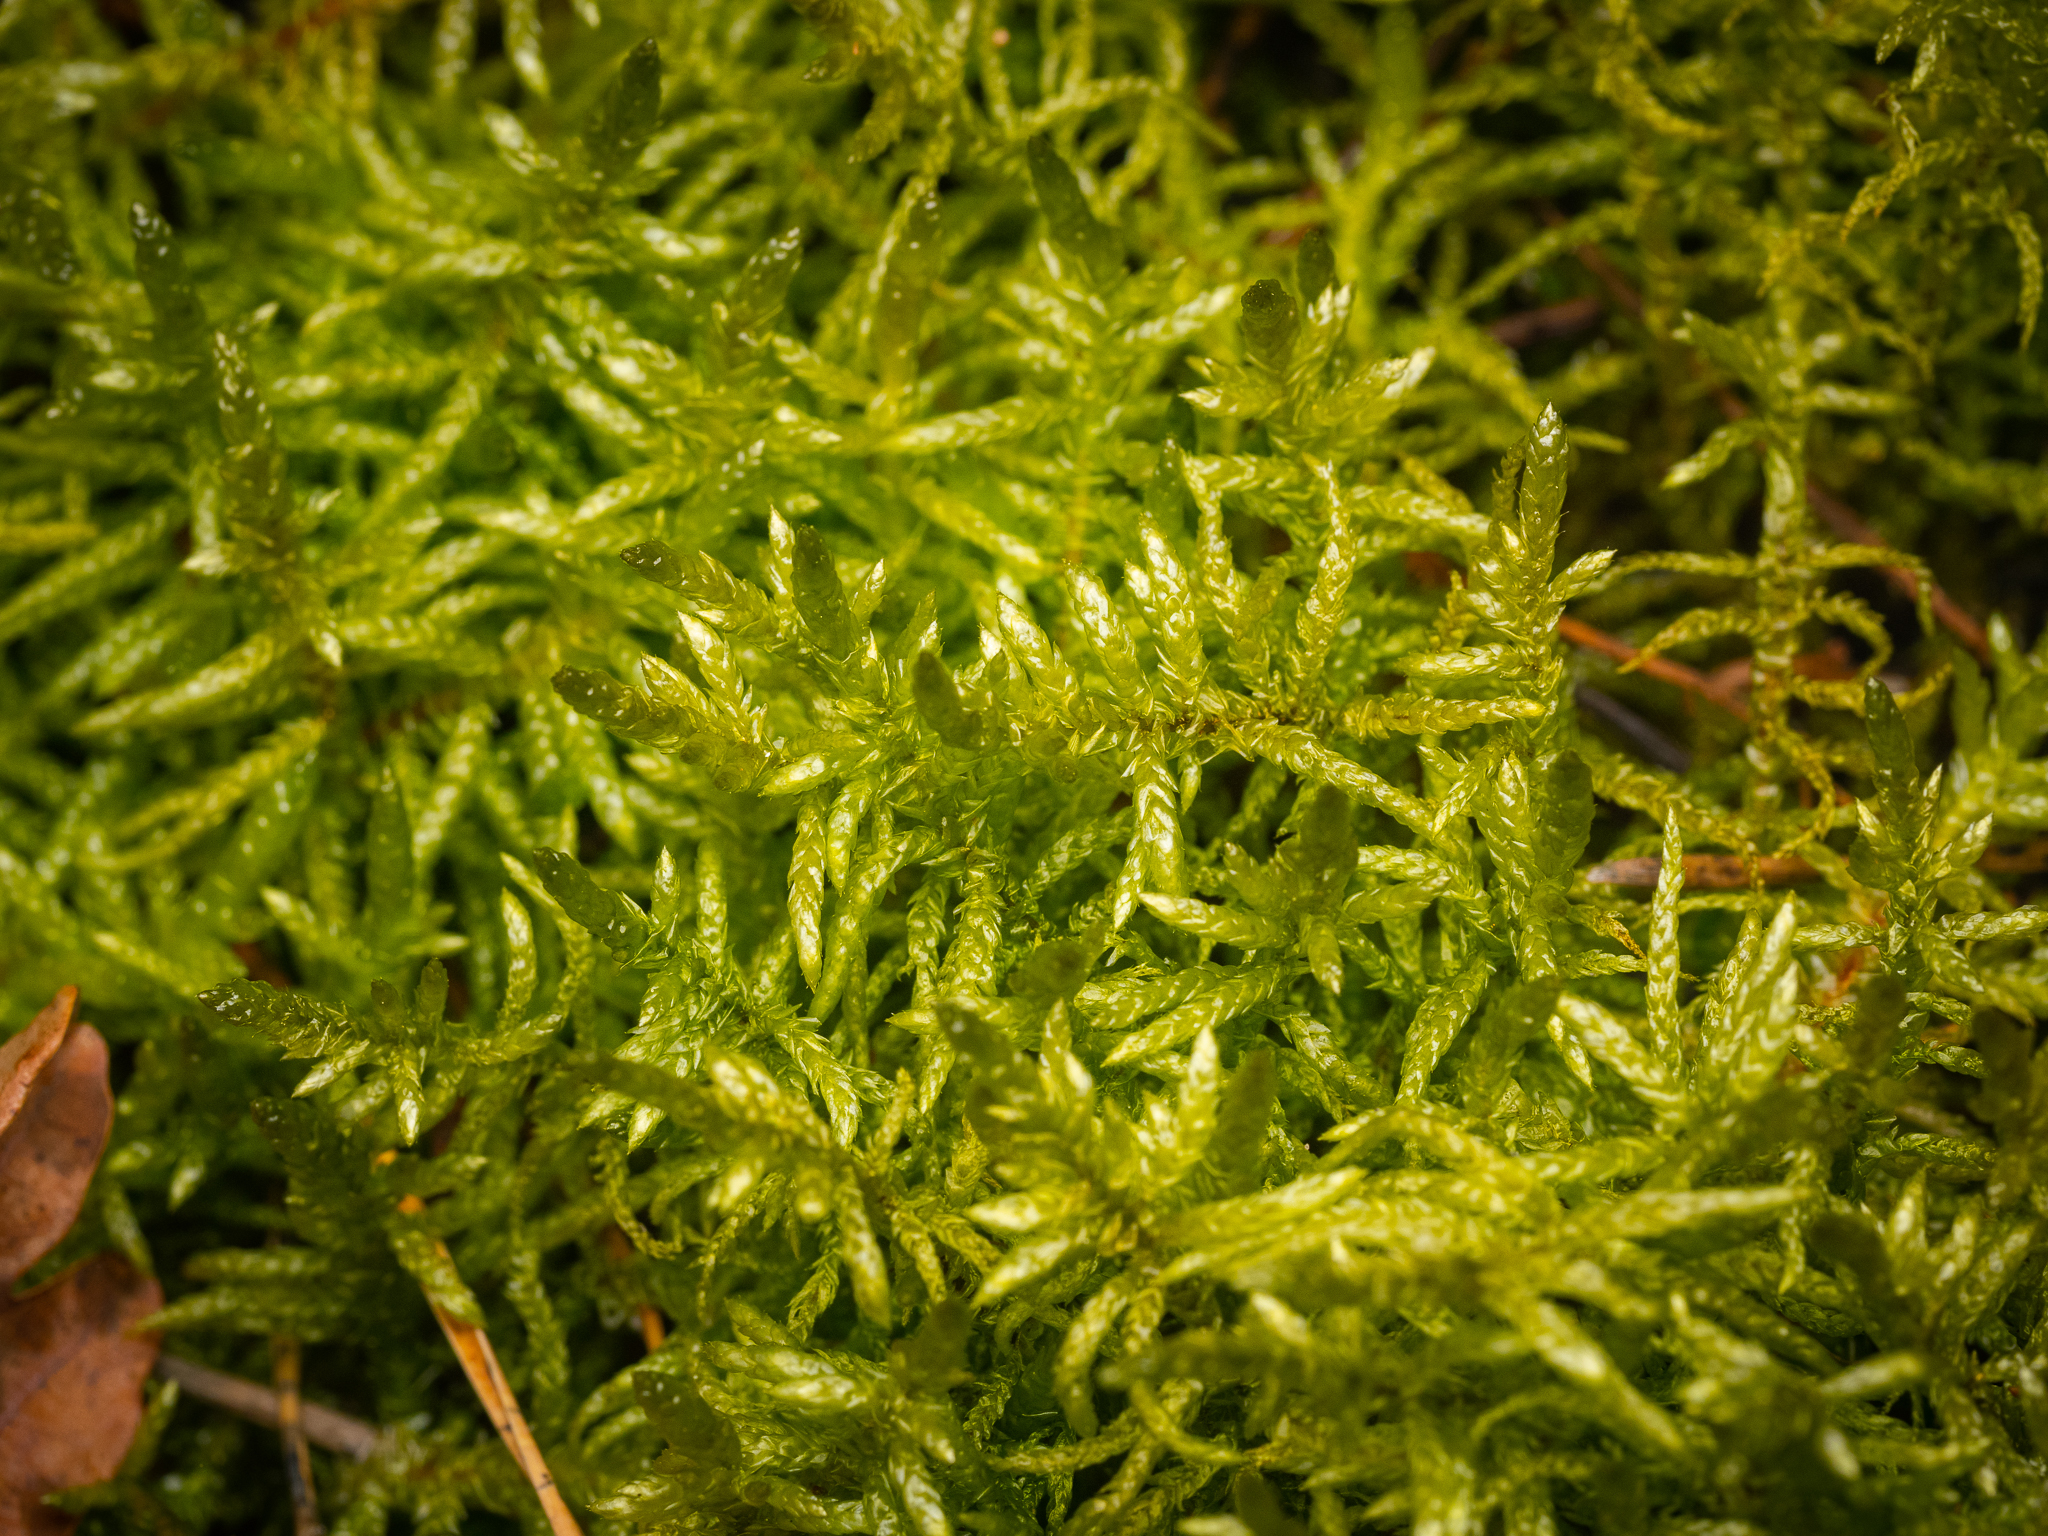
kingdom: Plantae
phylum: Bryophyta
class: Bryopsida
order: Hypnales
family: Brachytheciaceae
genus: Pseudoscleropodium
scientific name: Pseudoscleropodium purum
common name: Neat feather-moss
